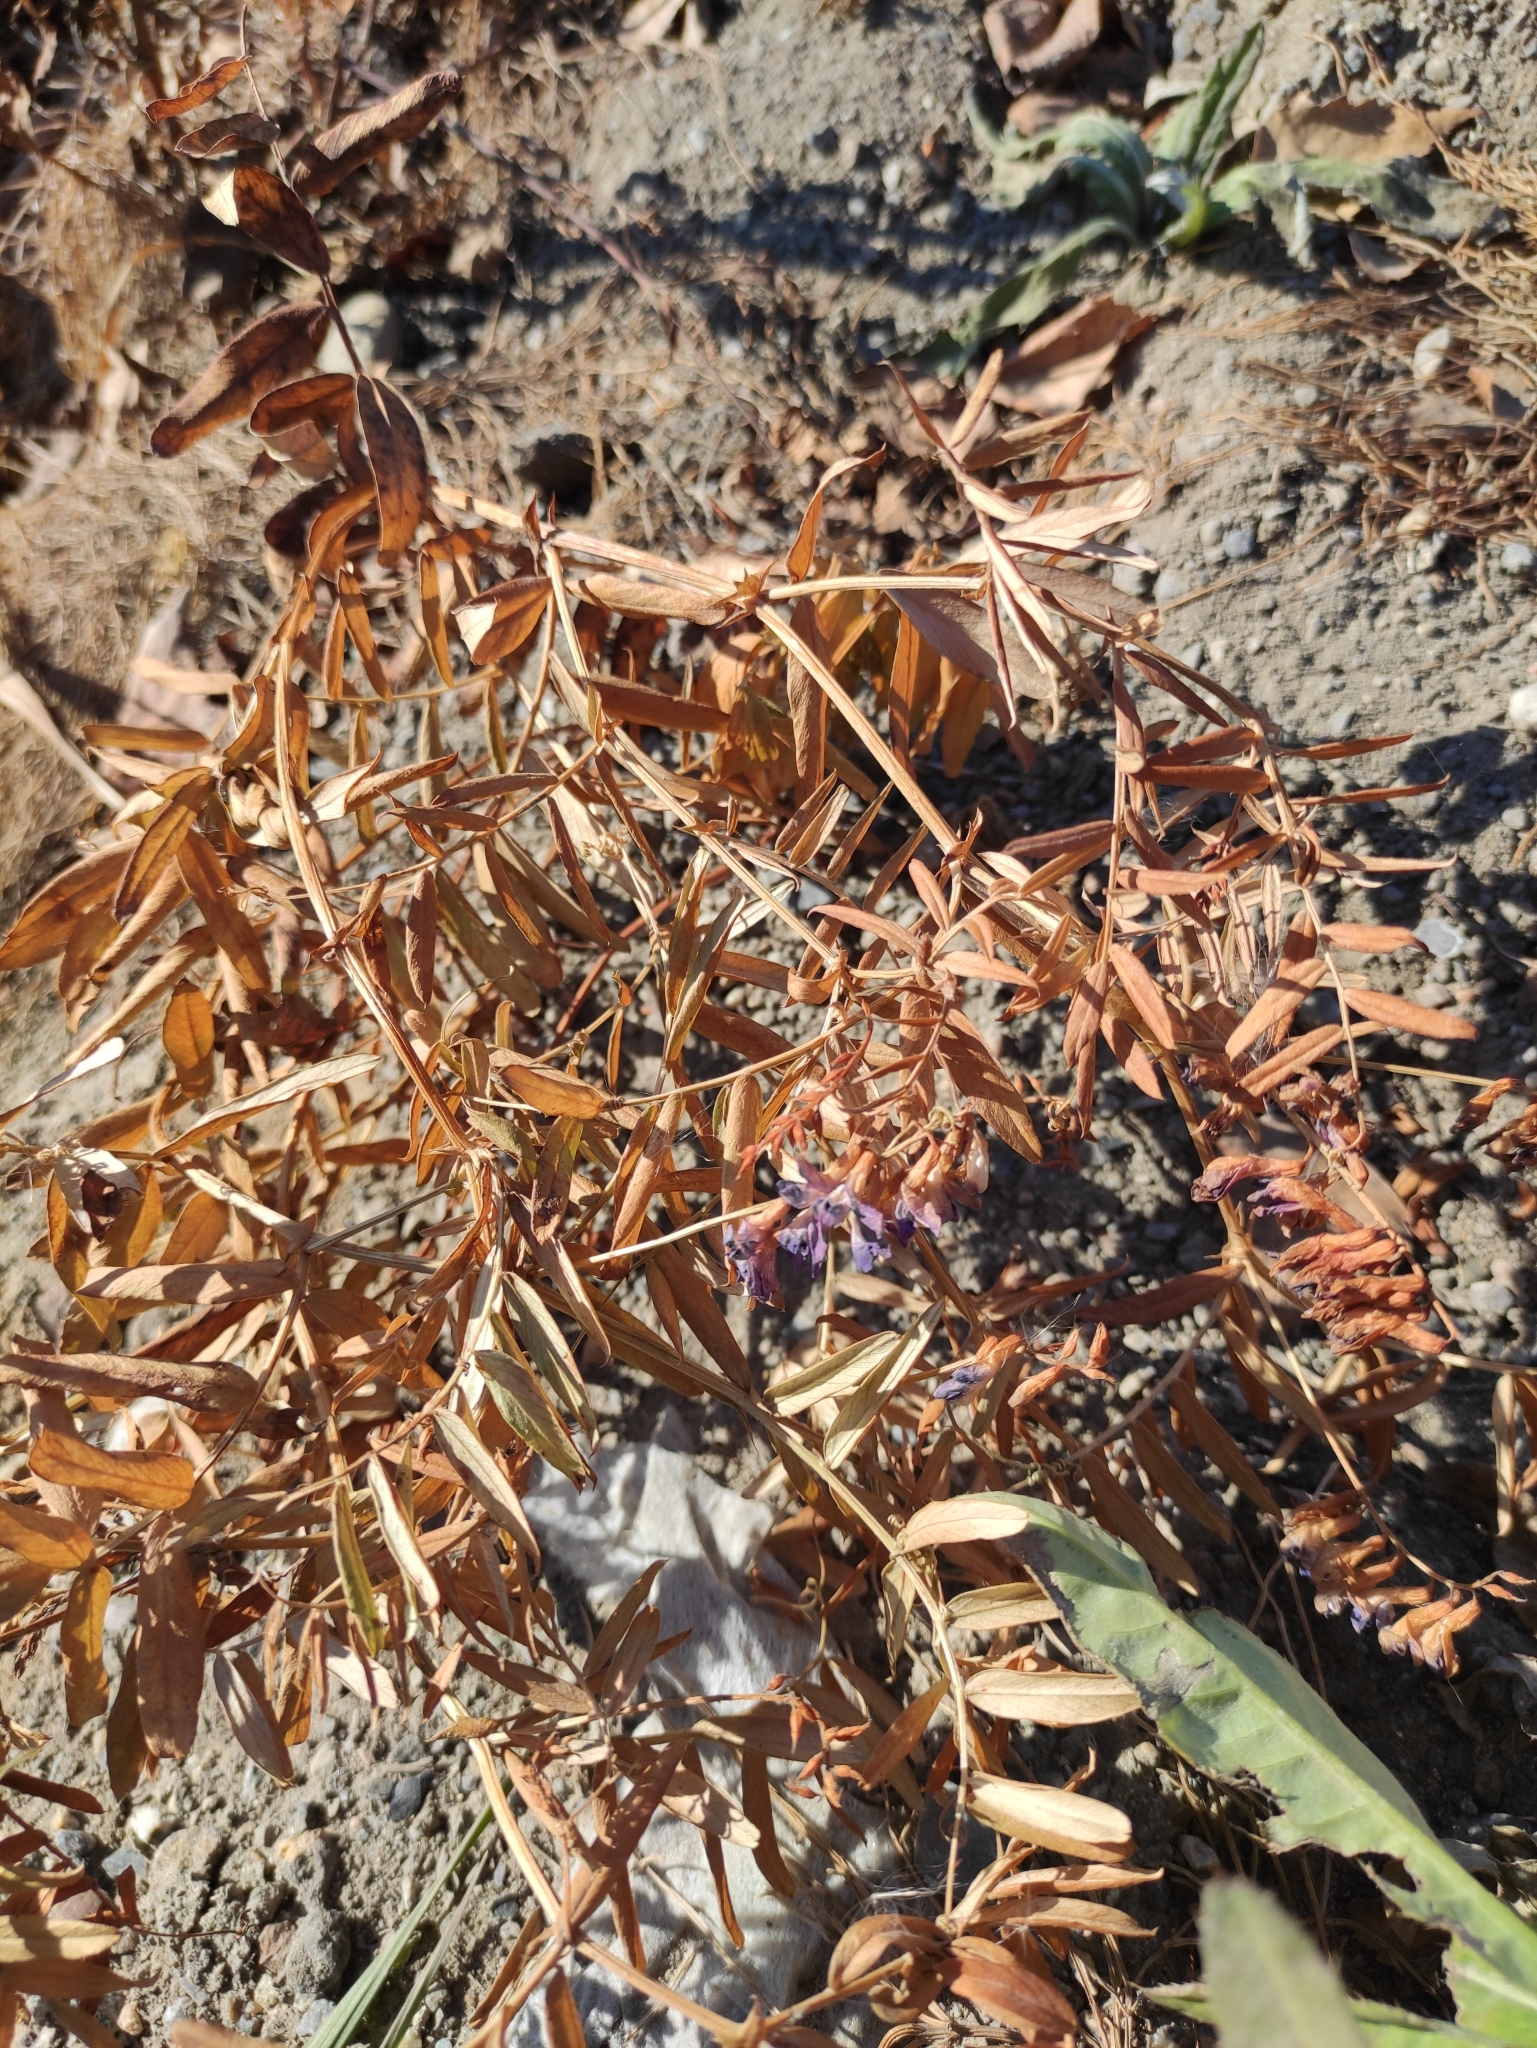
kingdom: Plantae
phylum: Tracheophyta
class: Magnoliopsida
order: Fabales
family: Fabaceae
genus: Vicia
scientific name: Vicia amoena
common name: Cheder ebs
